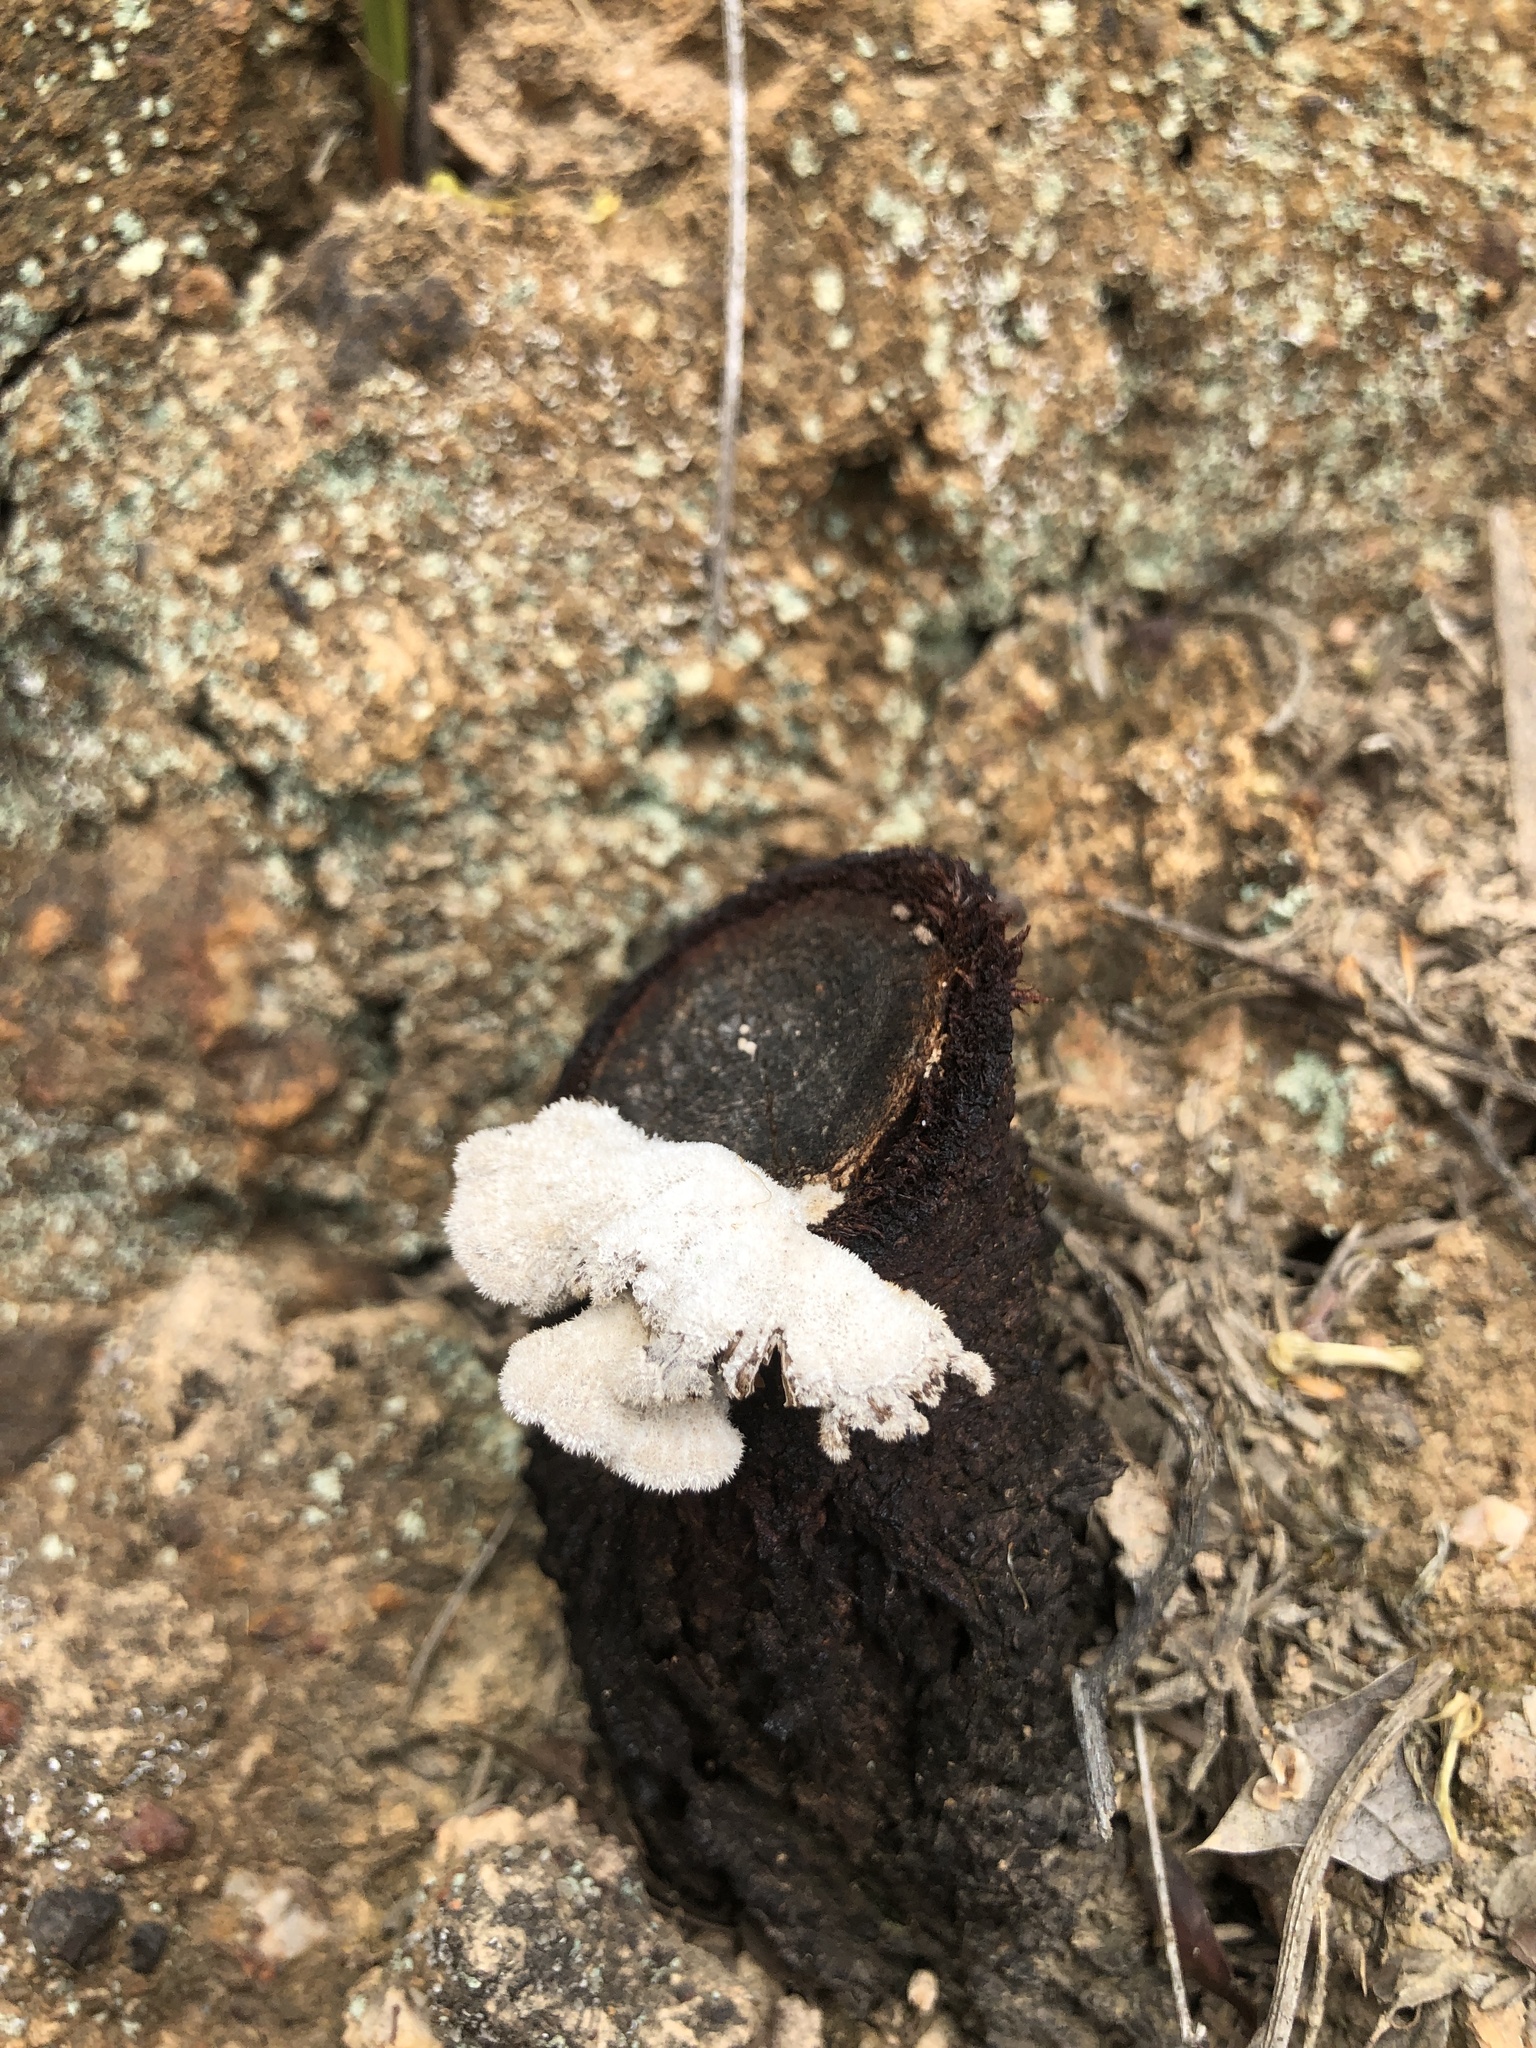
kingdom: Fungi
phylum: Basidiomycota
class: Agaricomycetes
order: Agaricales
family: Schizophyllaceae
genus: Schizophyllum
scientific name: Schizophyllum commune
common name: Common porecrust
